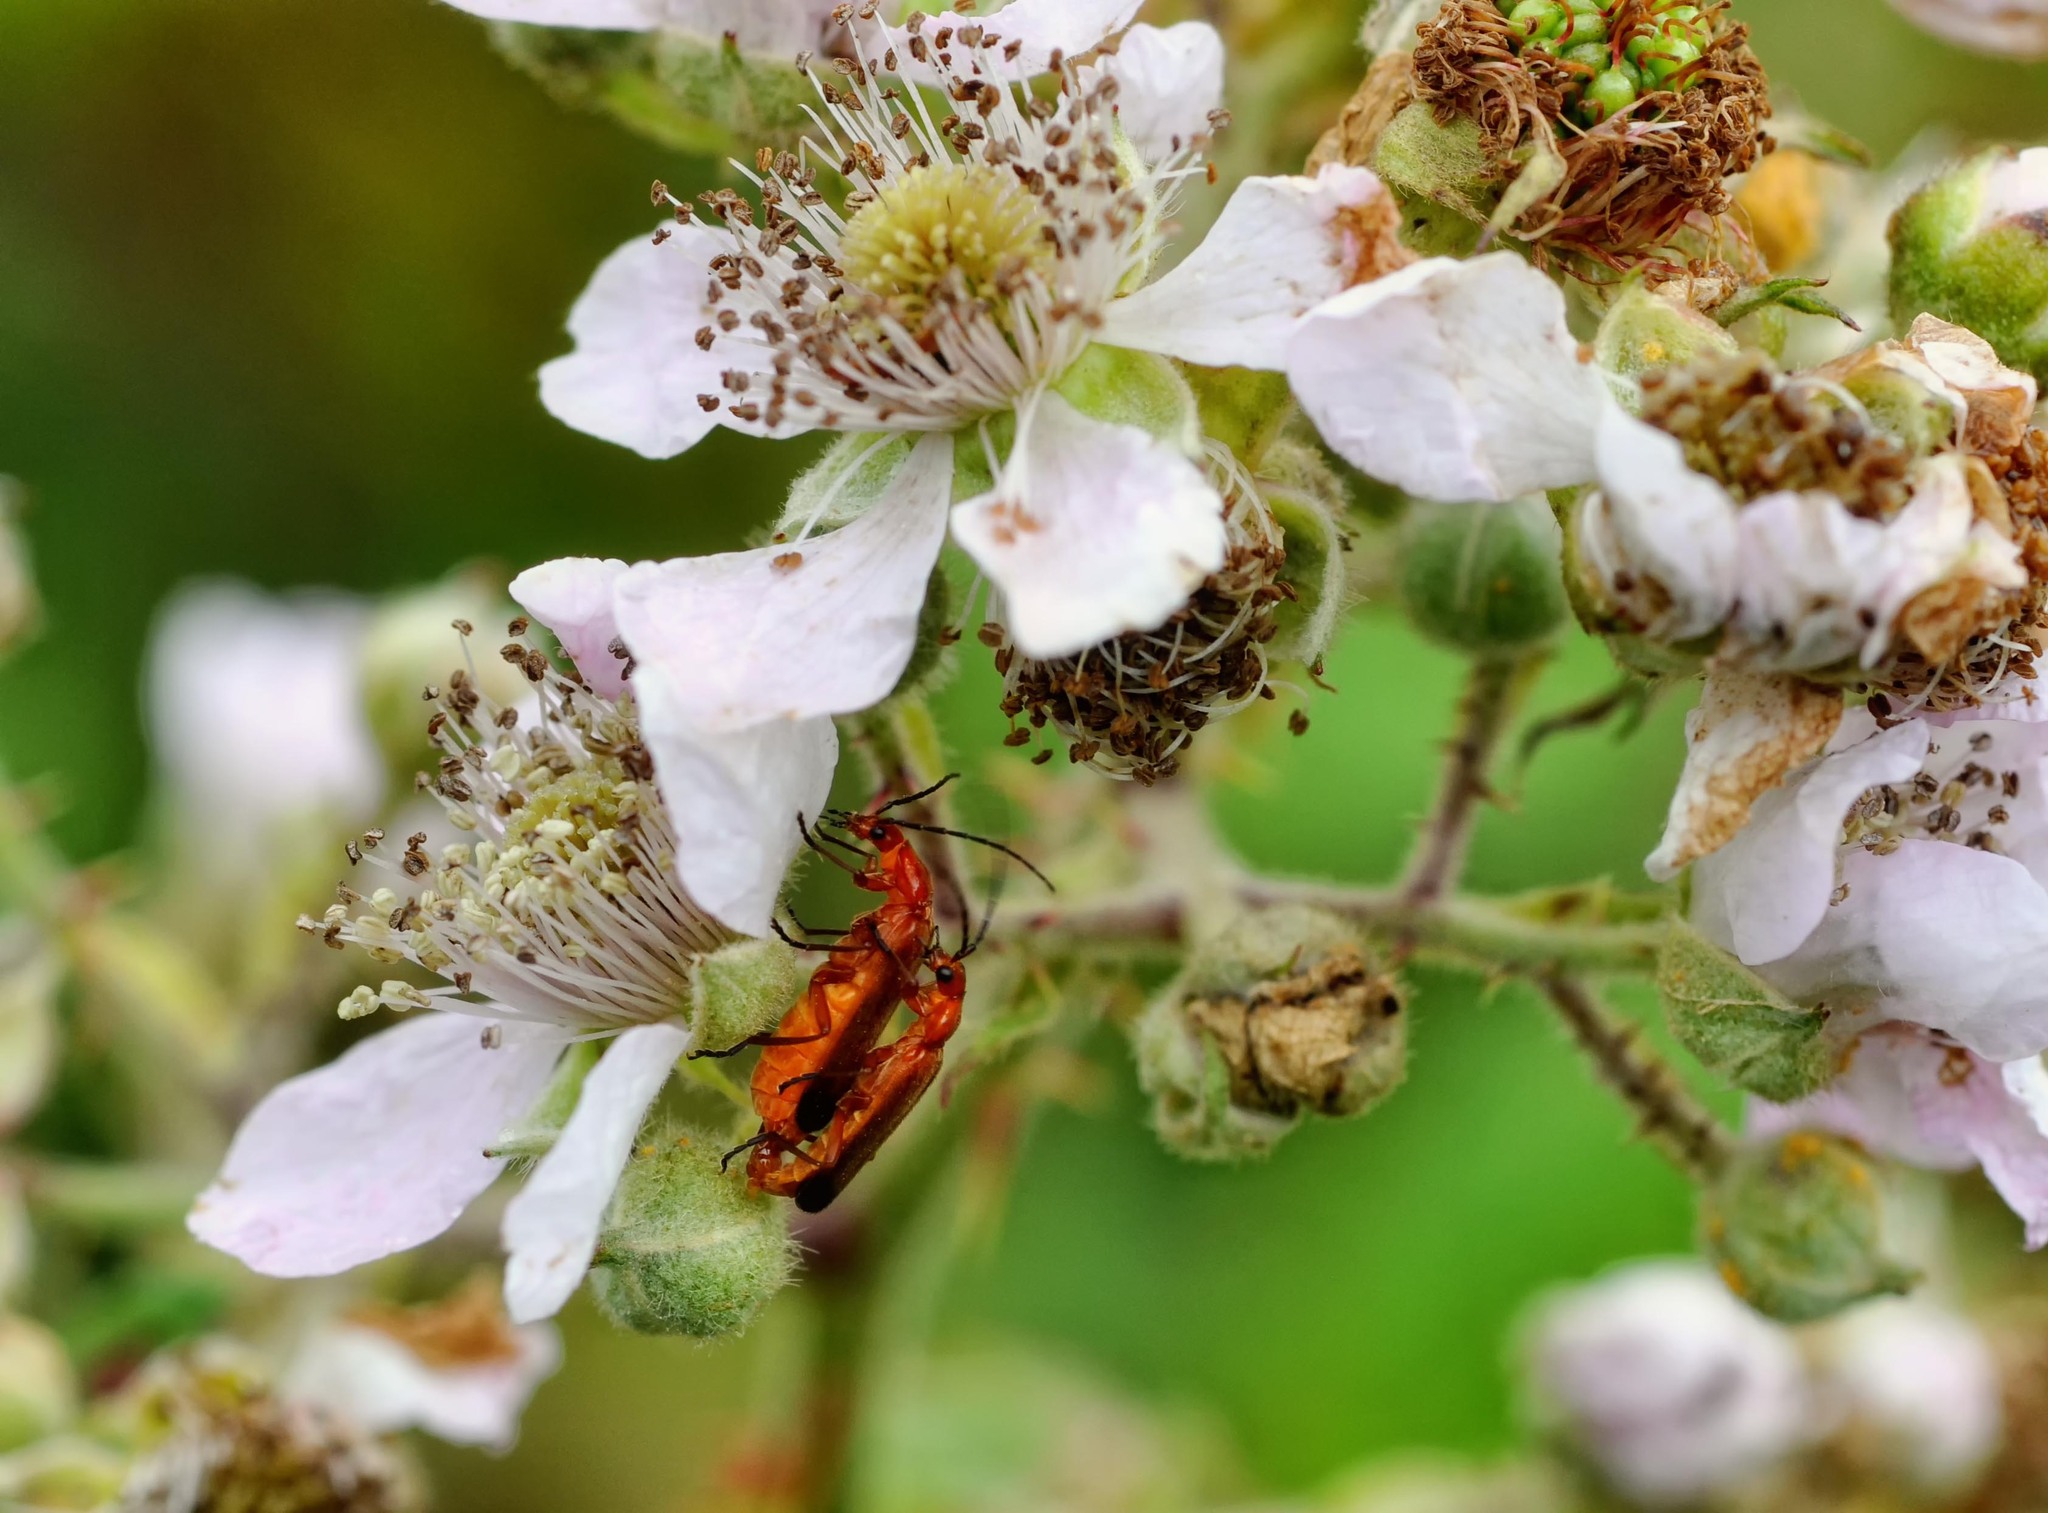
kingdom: Animalia
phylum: Arthropoda
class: Insecta
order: Coleoptera
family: Cantharidae
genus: Rhagonycha
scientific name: Rhagonycha fulva
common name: Common red soldier beetle
